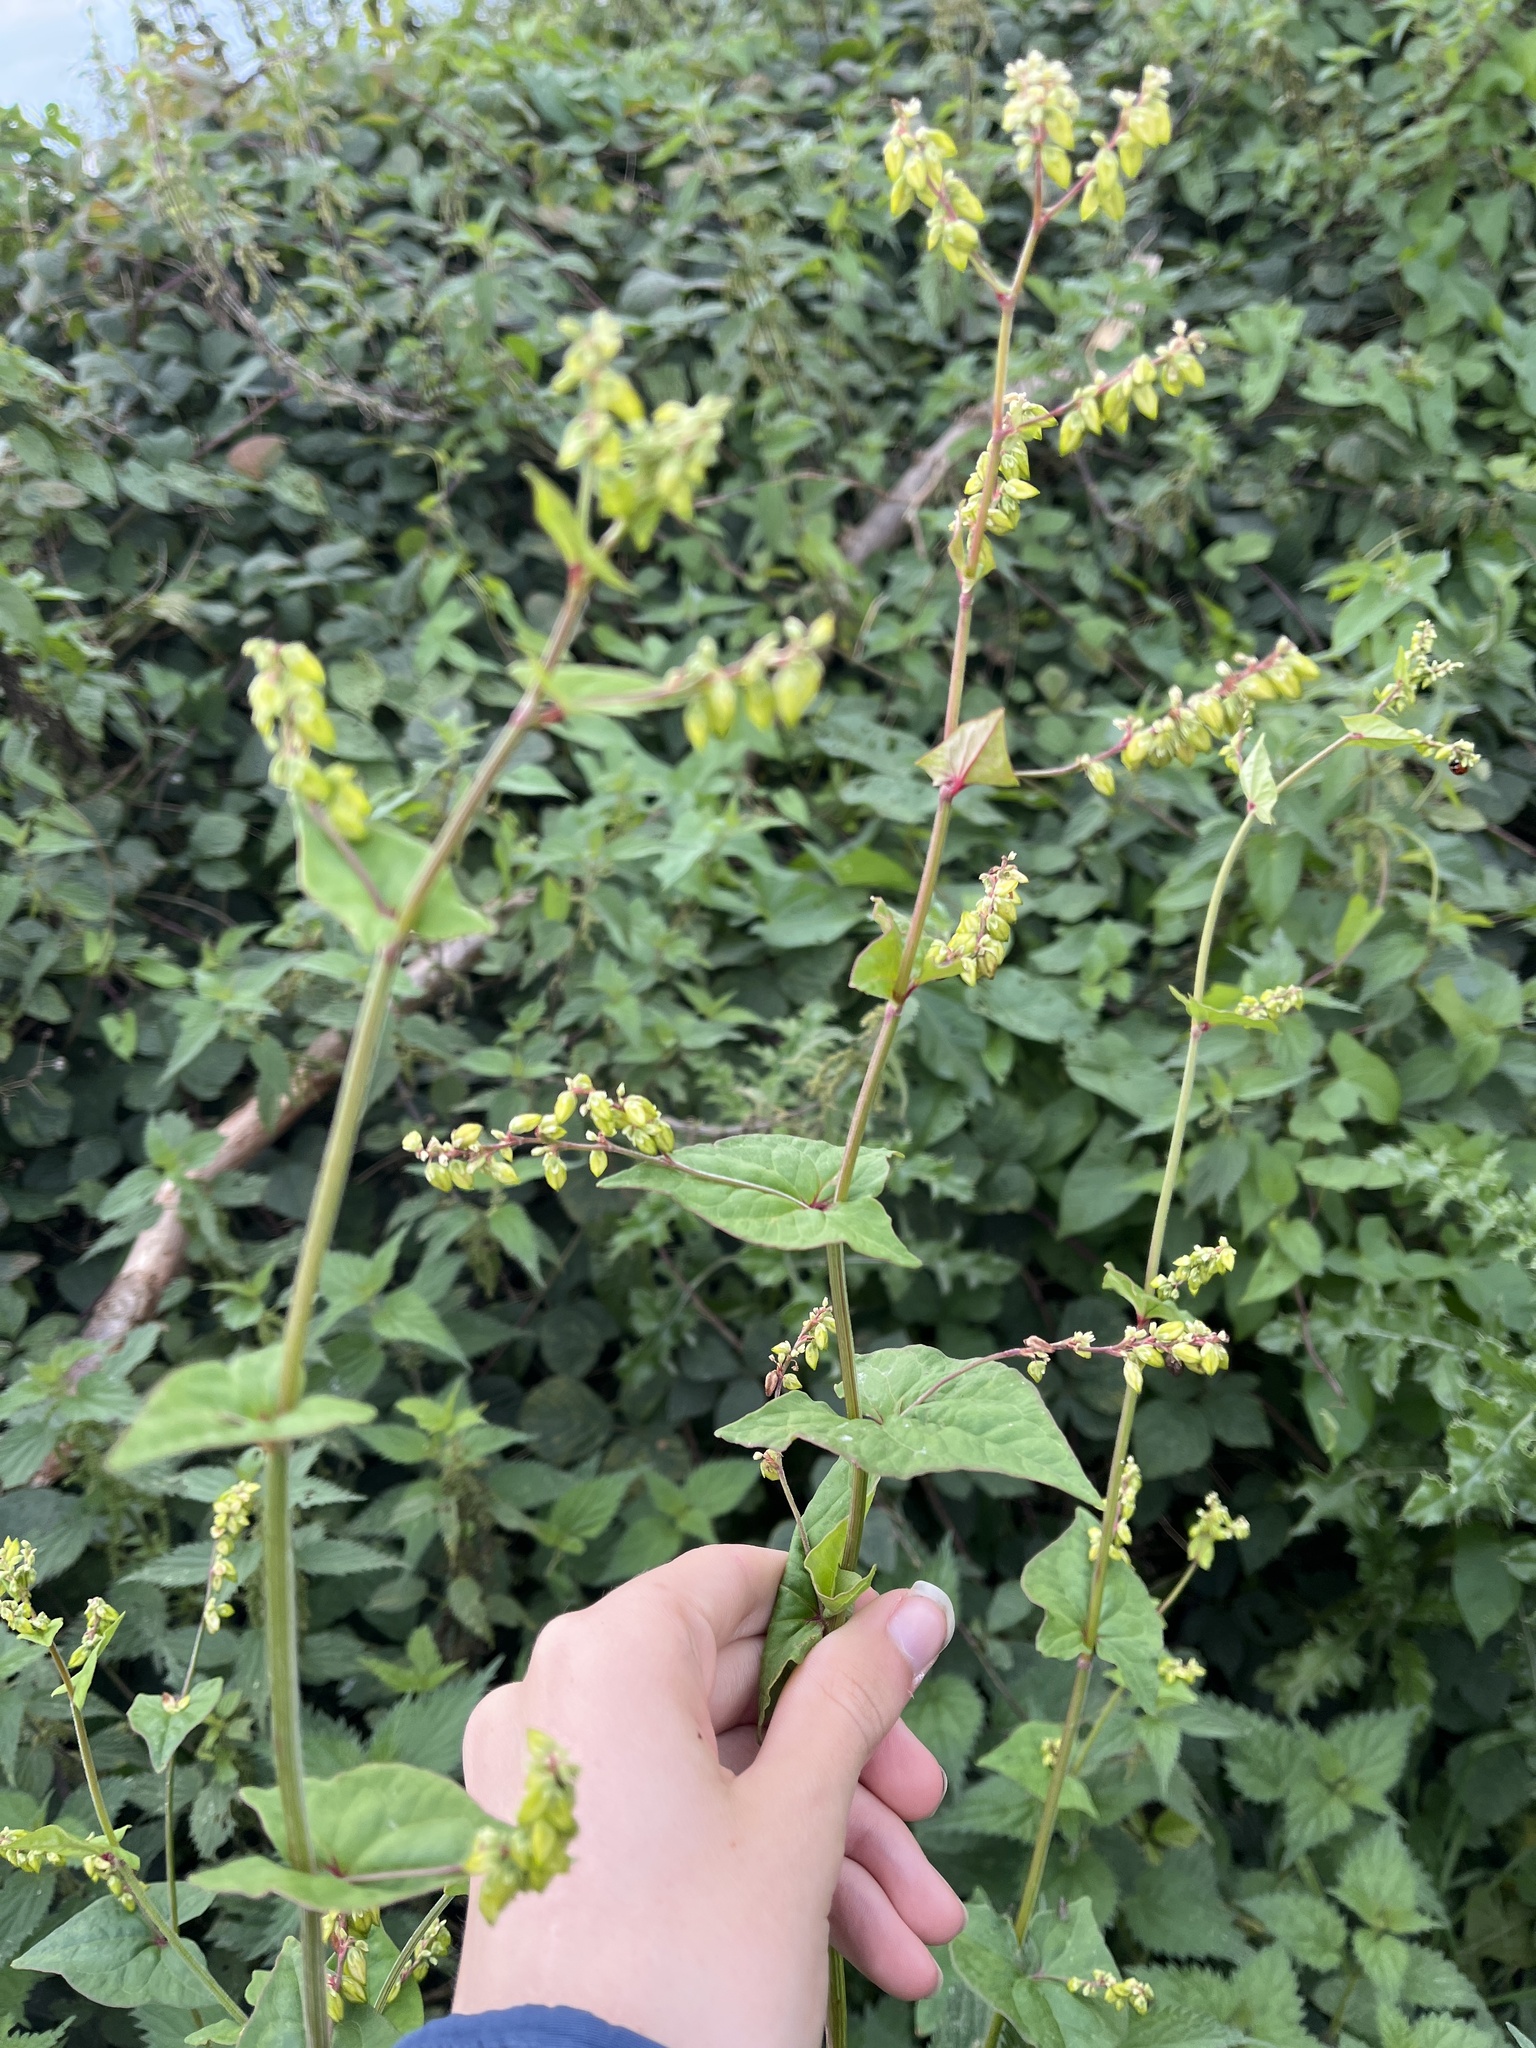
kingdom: Plantae
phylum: Tracheophyta
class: Magnoliopsida
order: Caryophyllales
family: Polygonaceae
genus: Fagopyrum
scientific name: Fagopyrum esculentum
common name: Buckwheat
